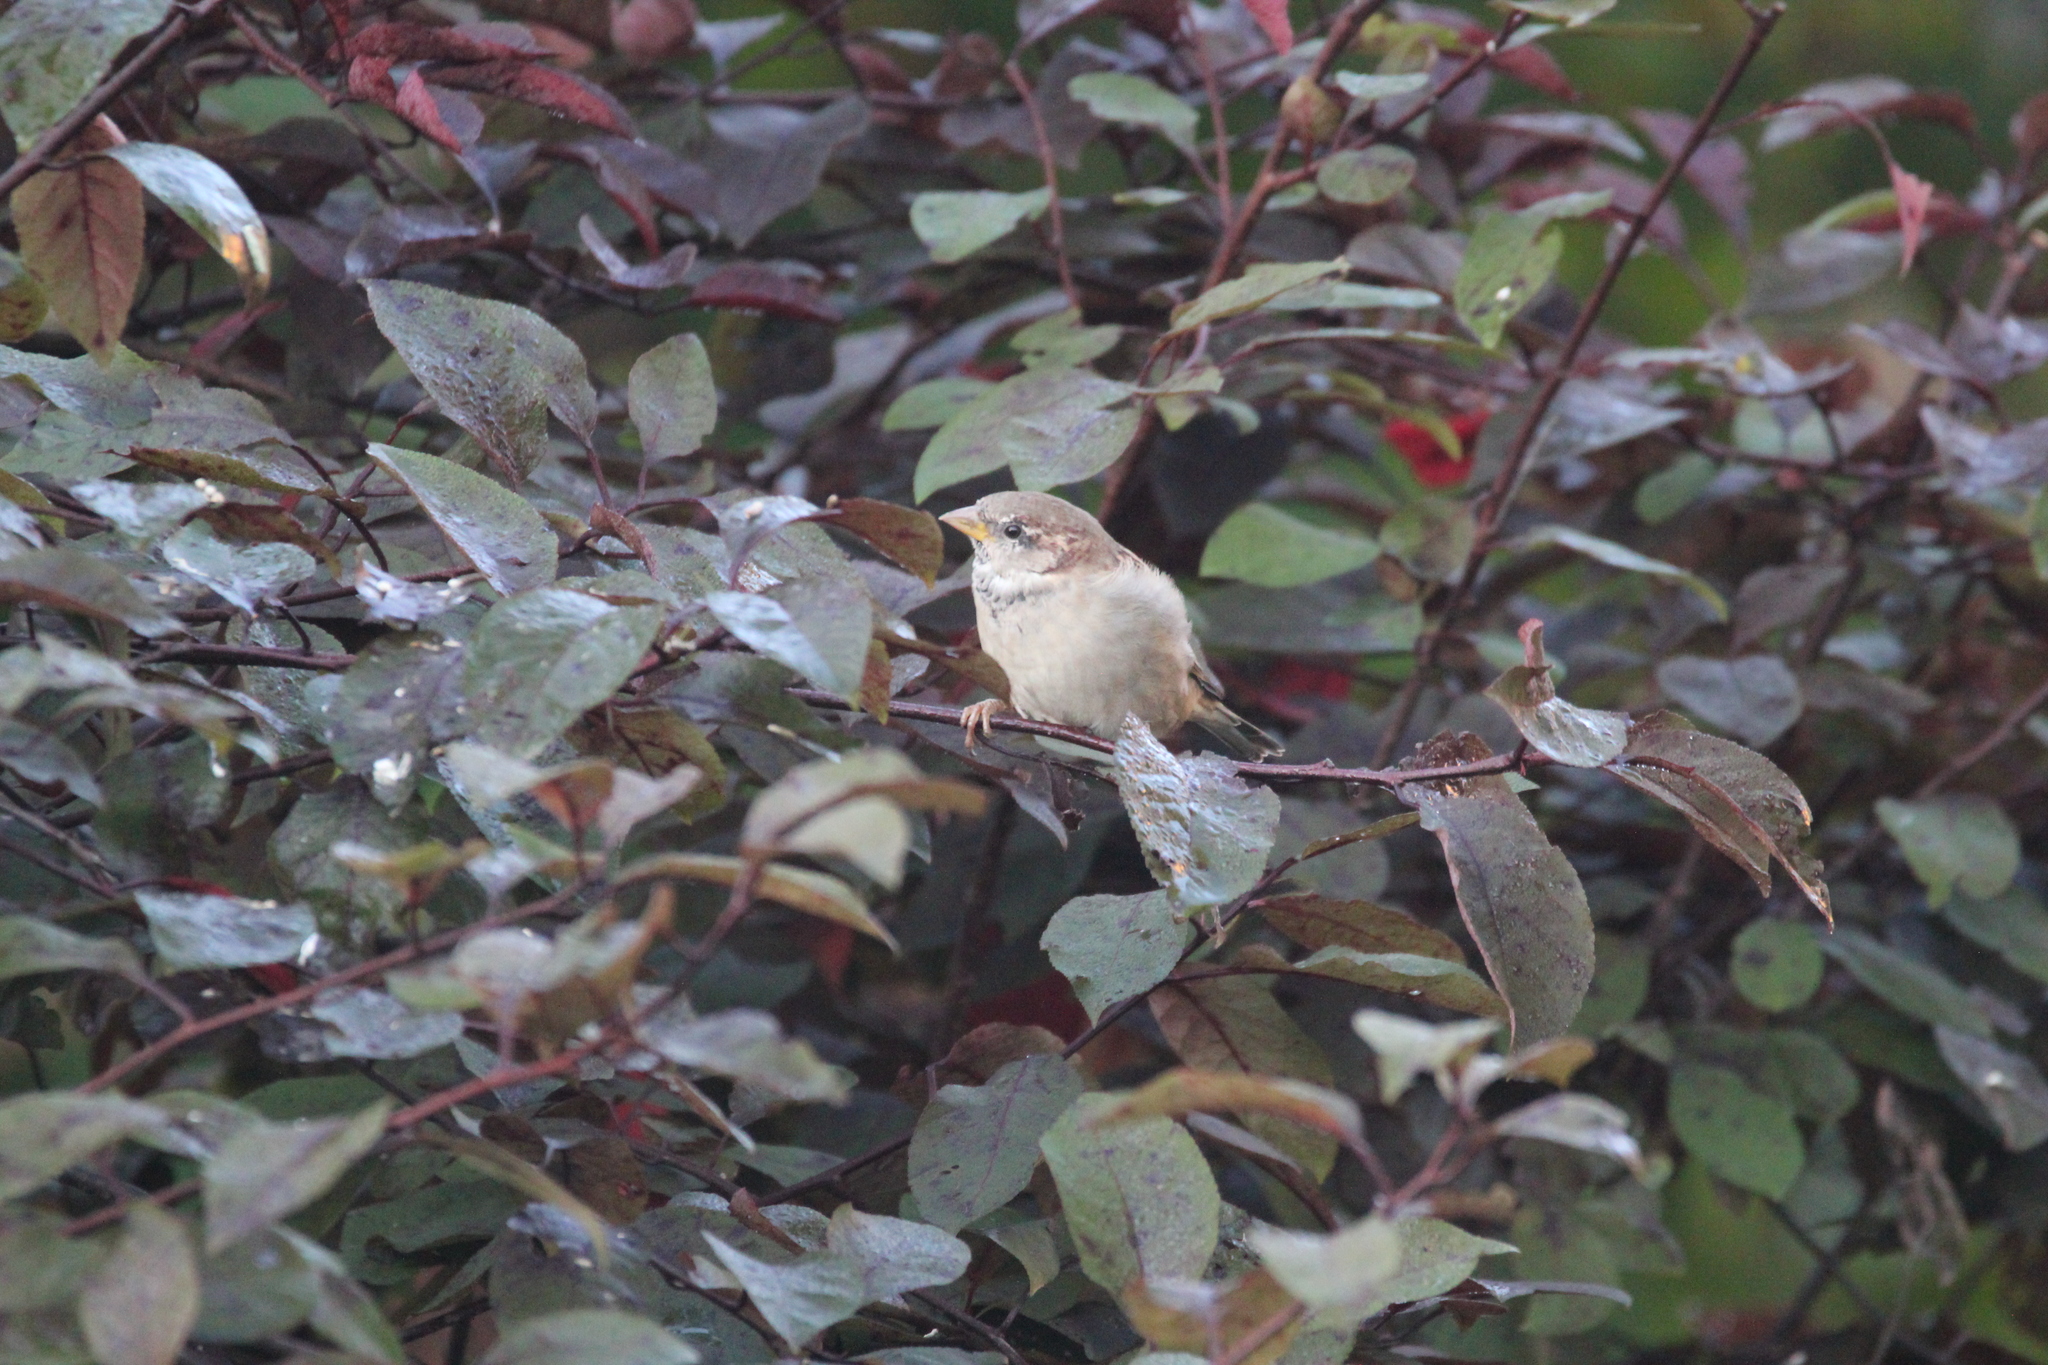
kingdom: Animalia
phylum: Chordata
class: Aves
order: Passeriformes
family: Passeridae
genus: Passer
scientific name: Passer domesticus
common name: House sparrow
